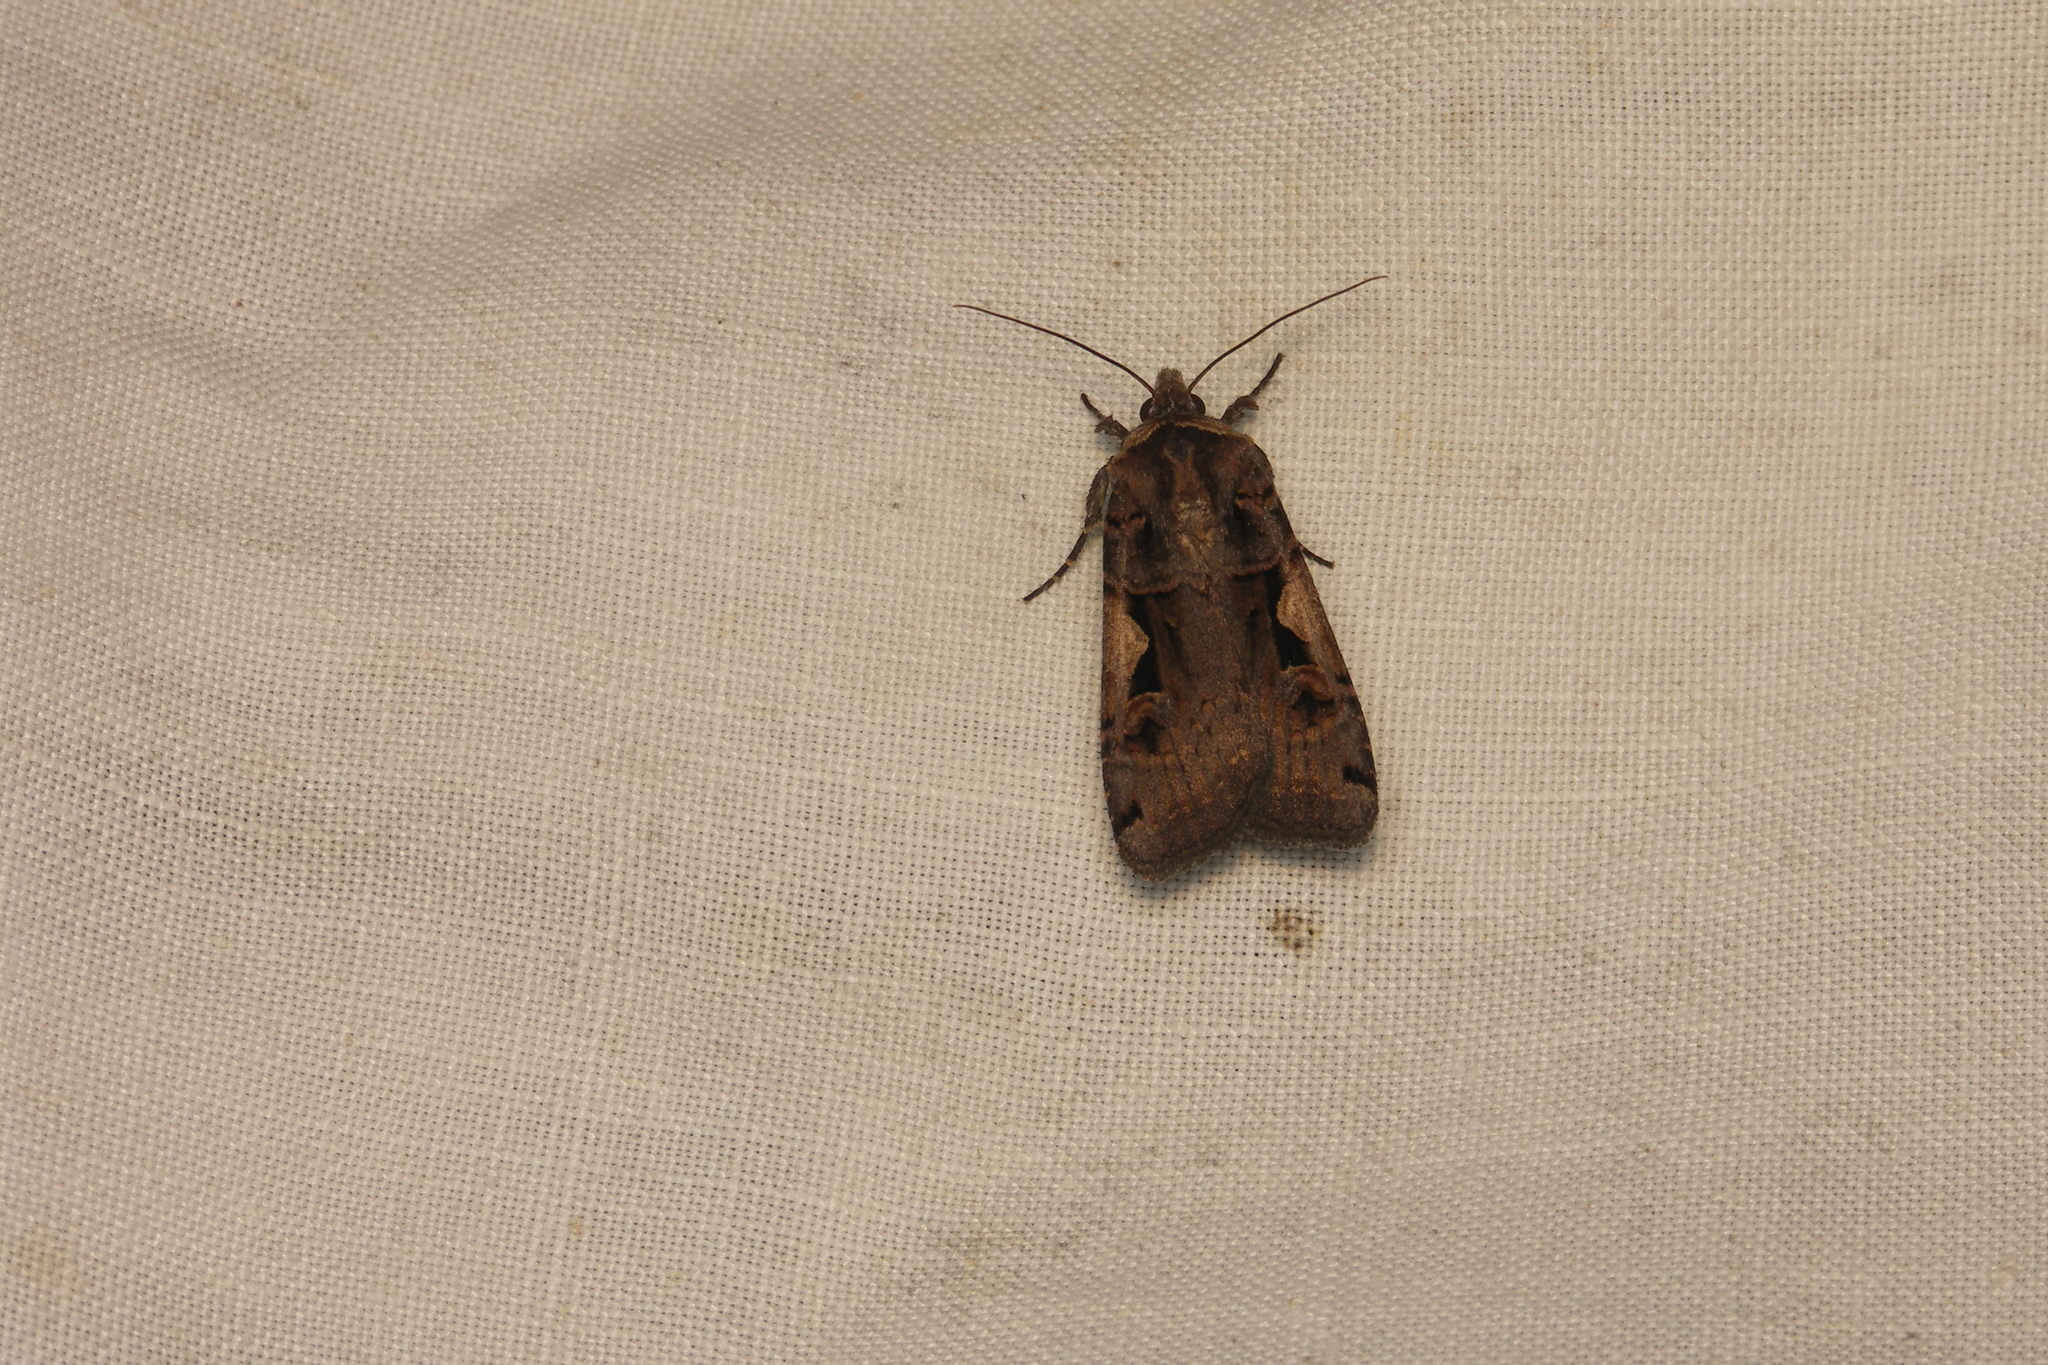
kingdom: Animalia
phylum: Arthropoda
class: Insecta
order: Lepidoptera
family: Noctuidae
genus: Xestia
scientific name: Xestia c-nigrum
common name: Setaceous hebrew character
